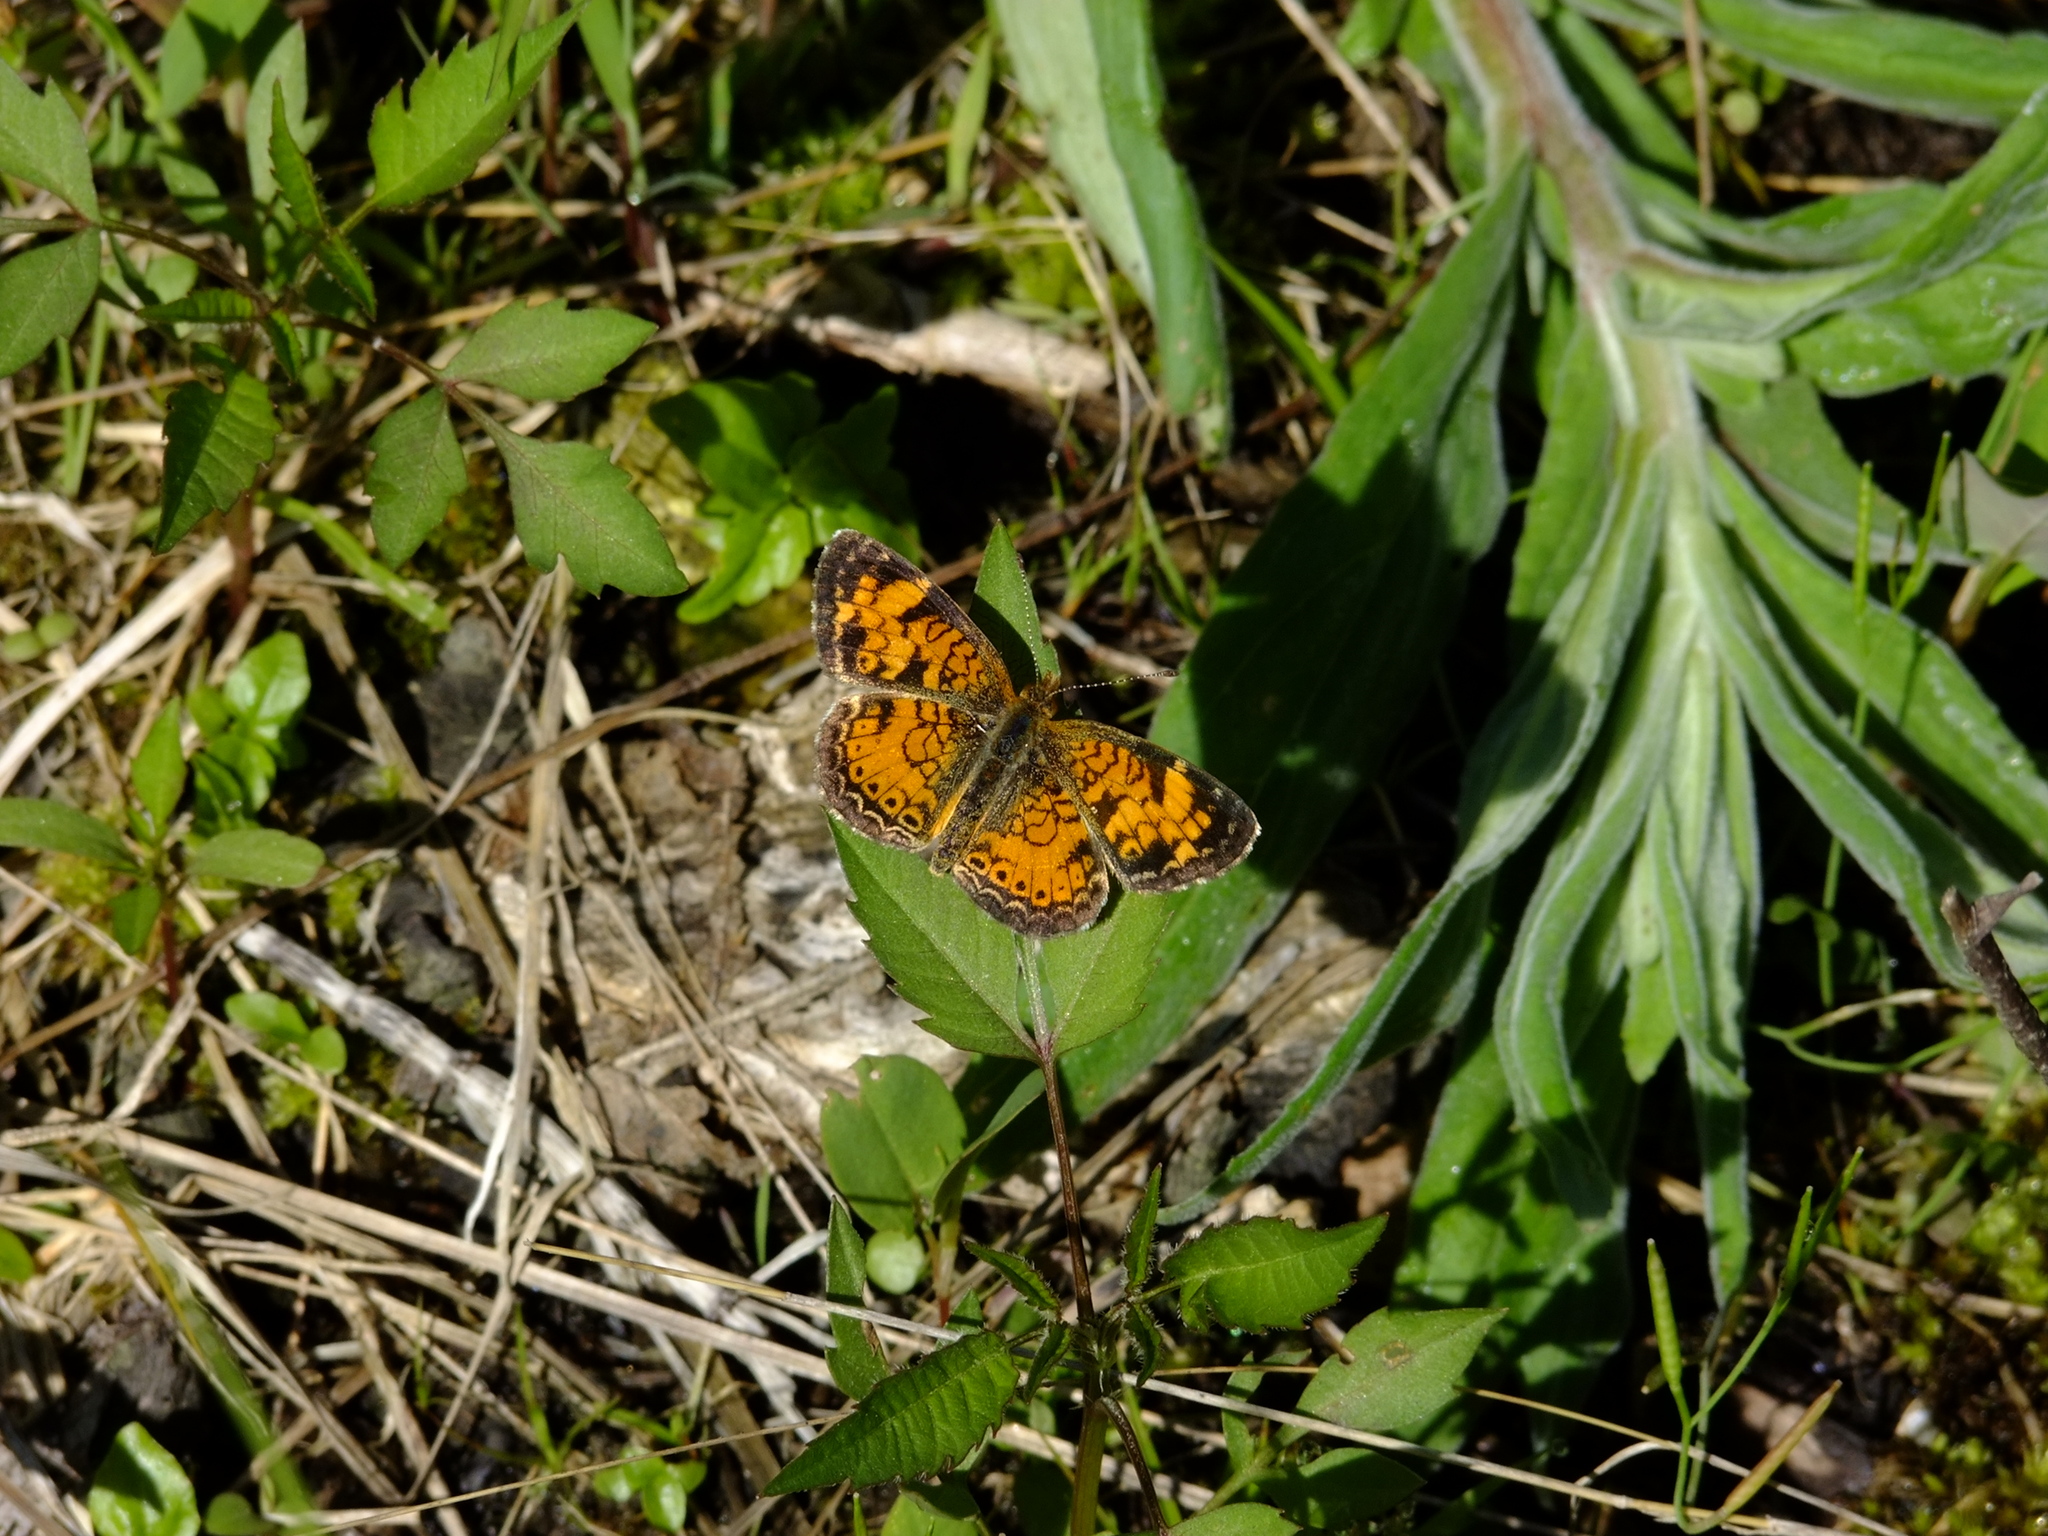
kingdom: Animalia
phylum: Arthropoda
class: Insecta
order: Lepidoptera
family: Nymphalidae
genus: Phyciodes
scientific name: Phyciodes tharos
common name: Pearl crescent
